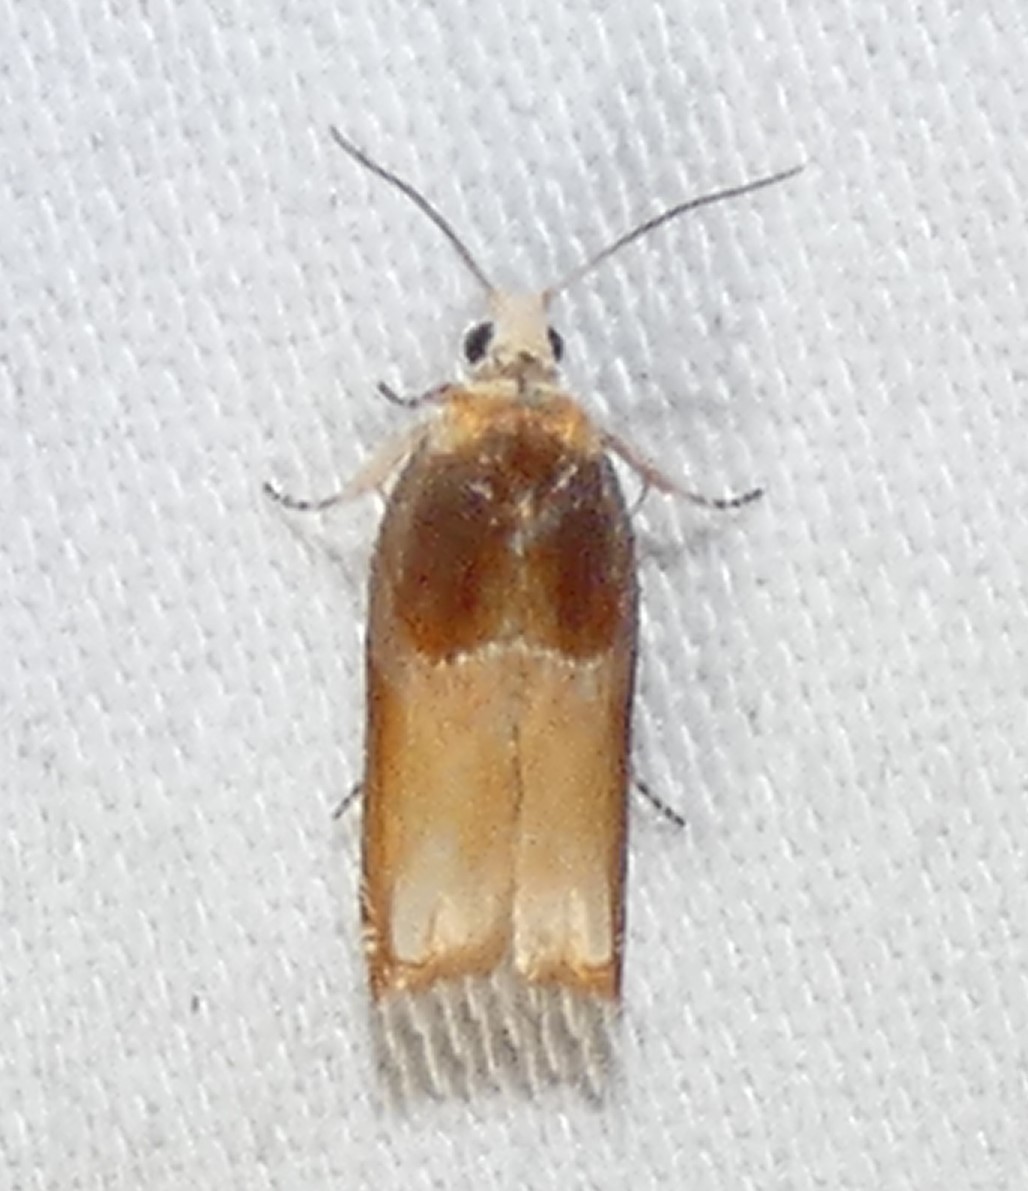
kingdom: Animalia
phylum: Arthropoda
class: Insecta
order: Lepidoptera
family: Tortricidae
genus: Ancylis
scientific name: Ancylis divisana
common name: Two-toned ancylis moth
